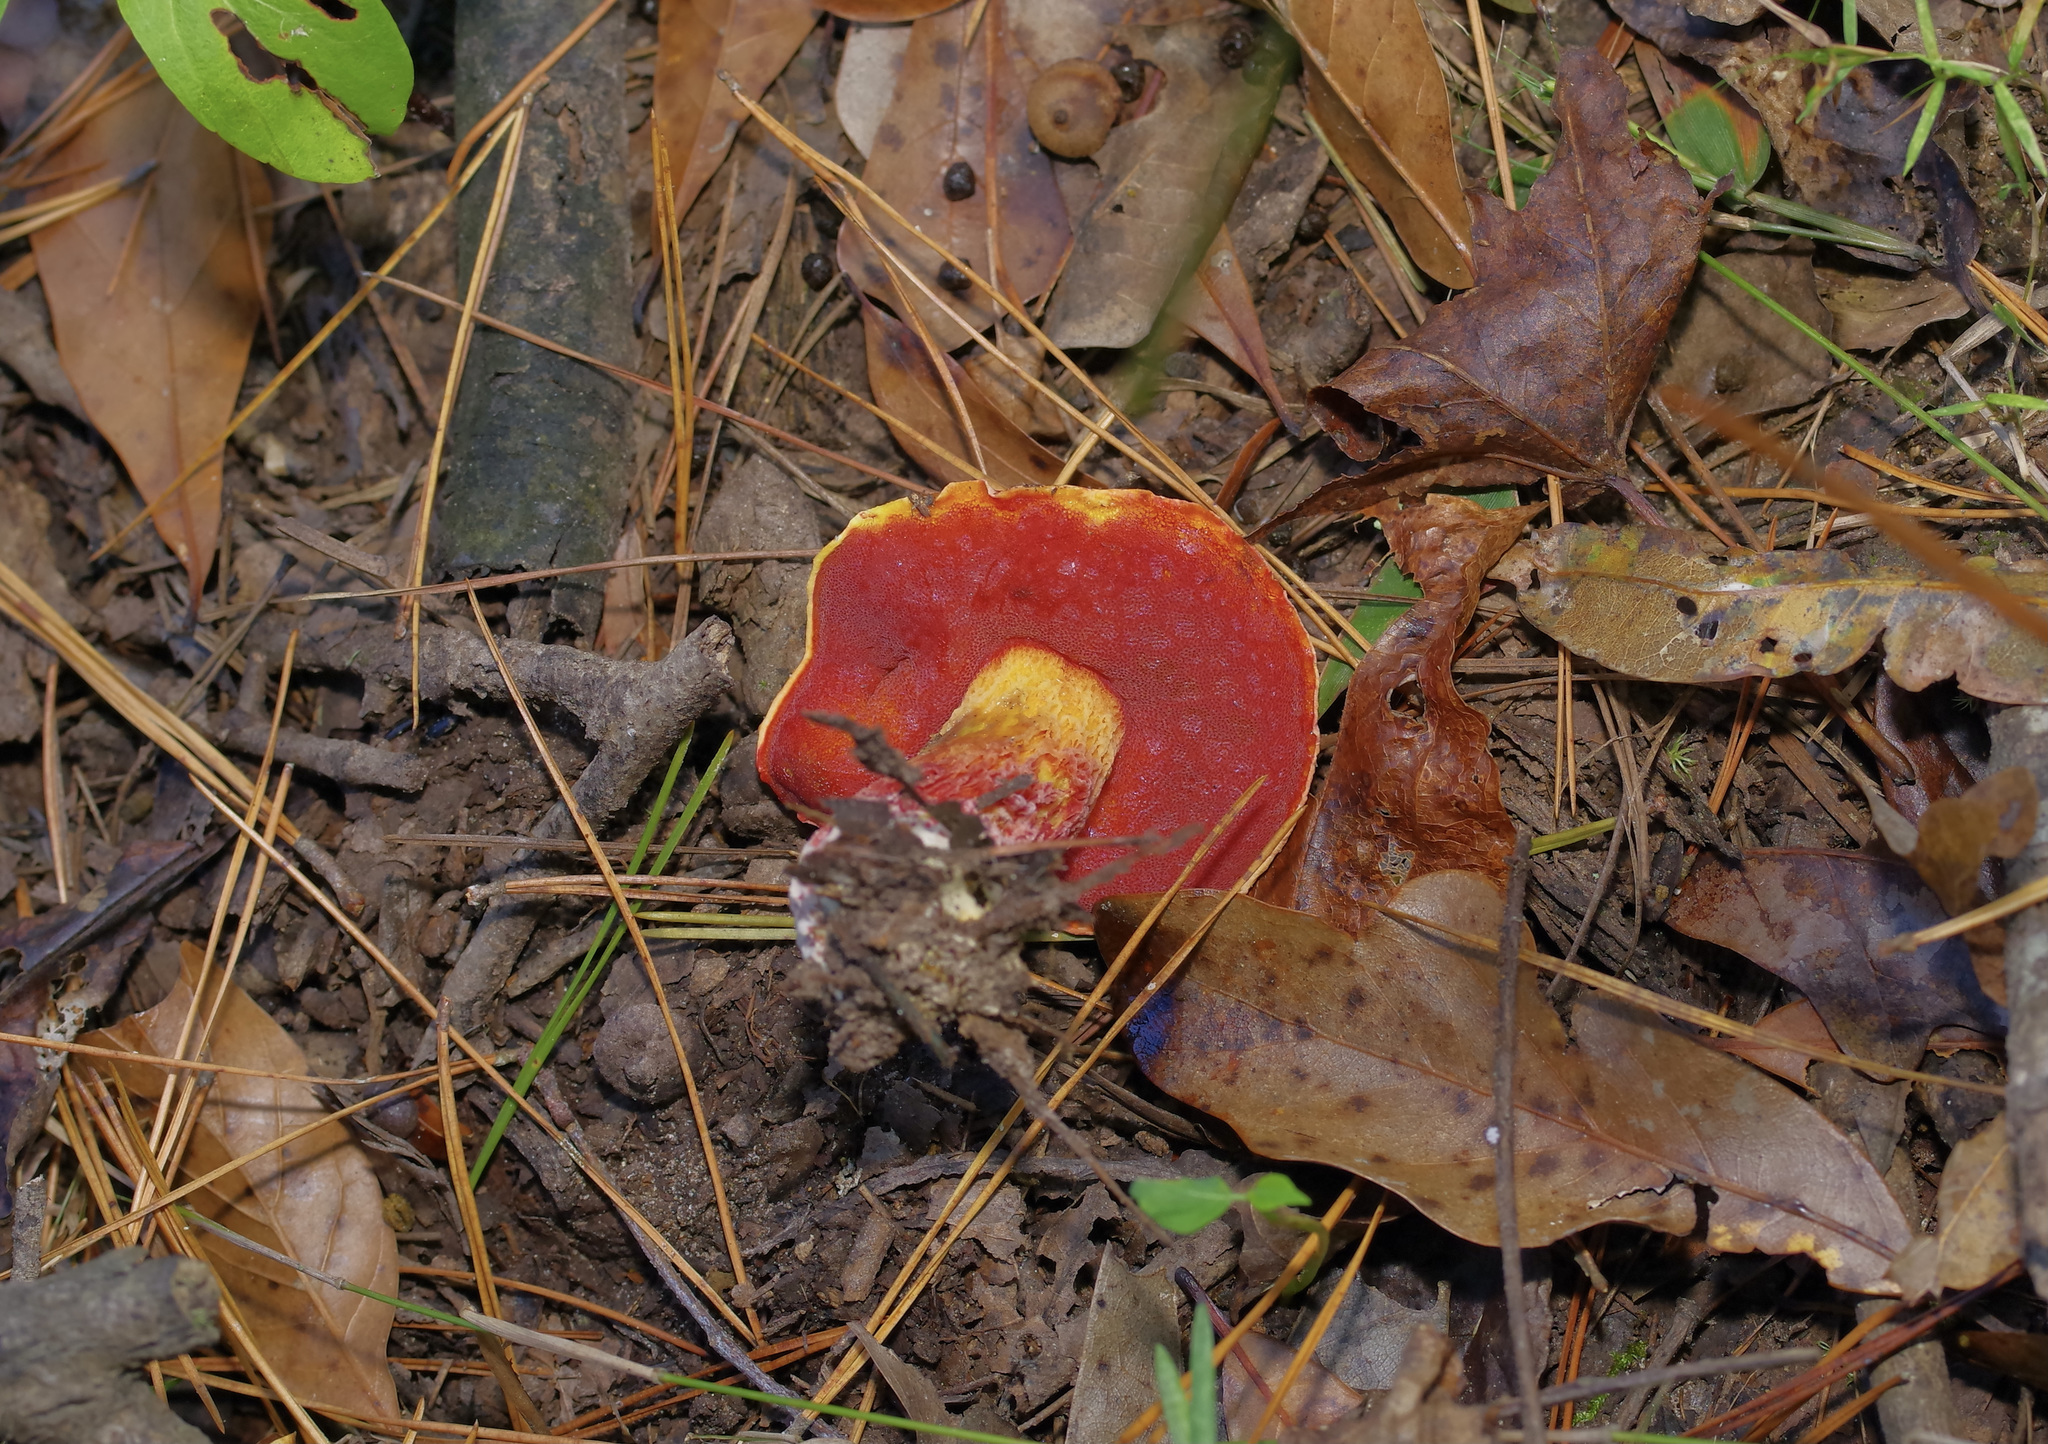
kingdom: Fungi
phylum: Basidiomycota
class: Agaricomycetes
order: Boletales
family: Boletaceae
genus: Butyriboletus
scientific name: Butyriboletus frostii
